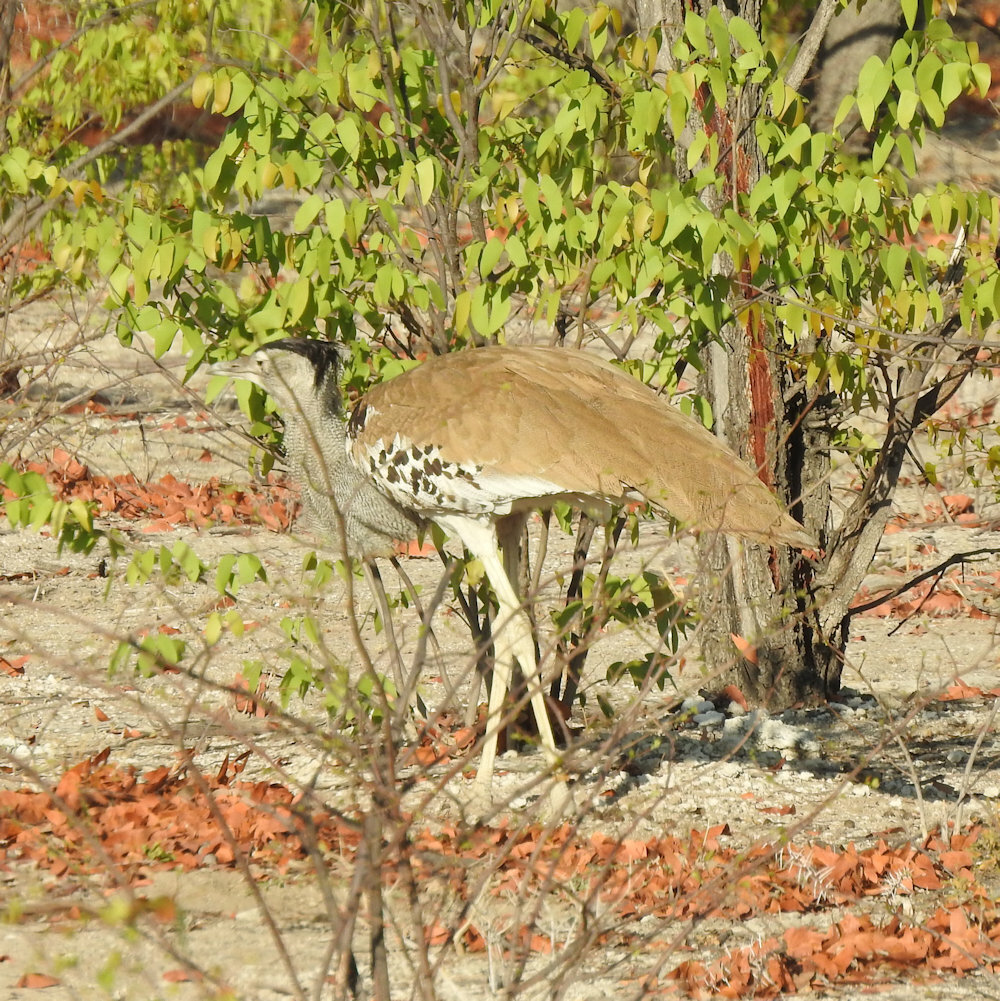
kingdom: Animalia
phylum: Chordata
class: Aves
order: Otidiformes
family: Otididae
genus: Ardeotis
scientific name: Ardeotis kori
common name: Kori bustard
